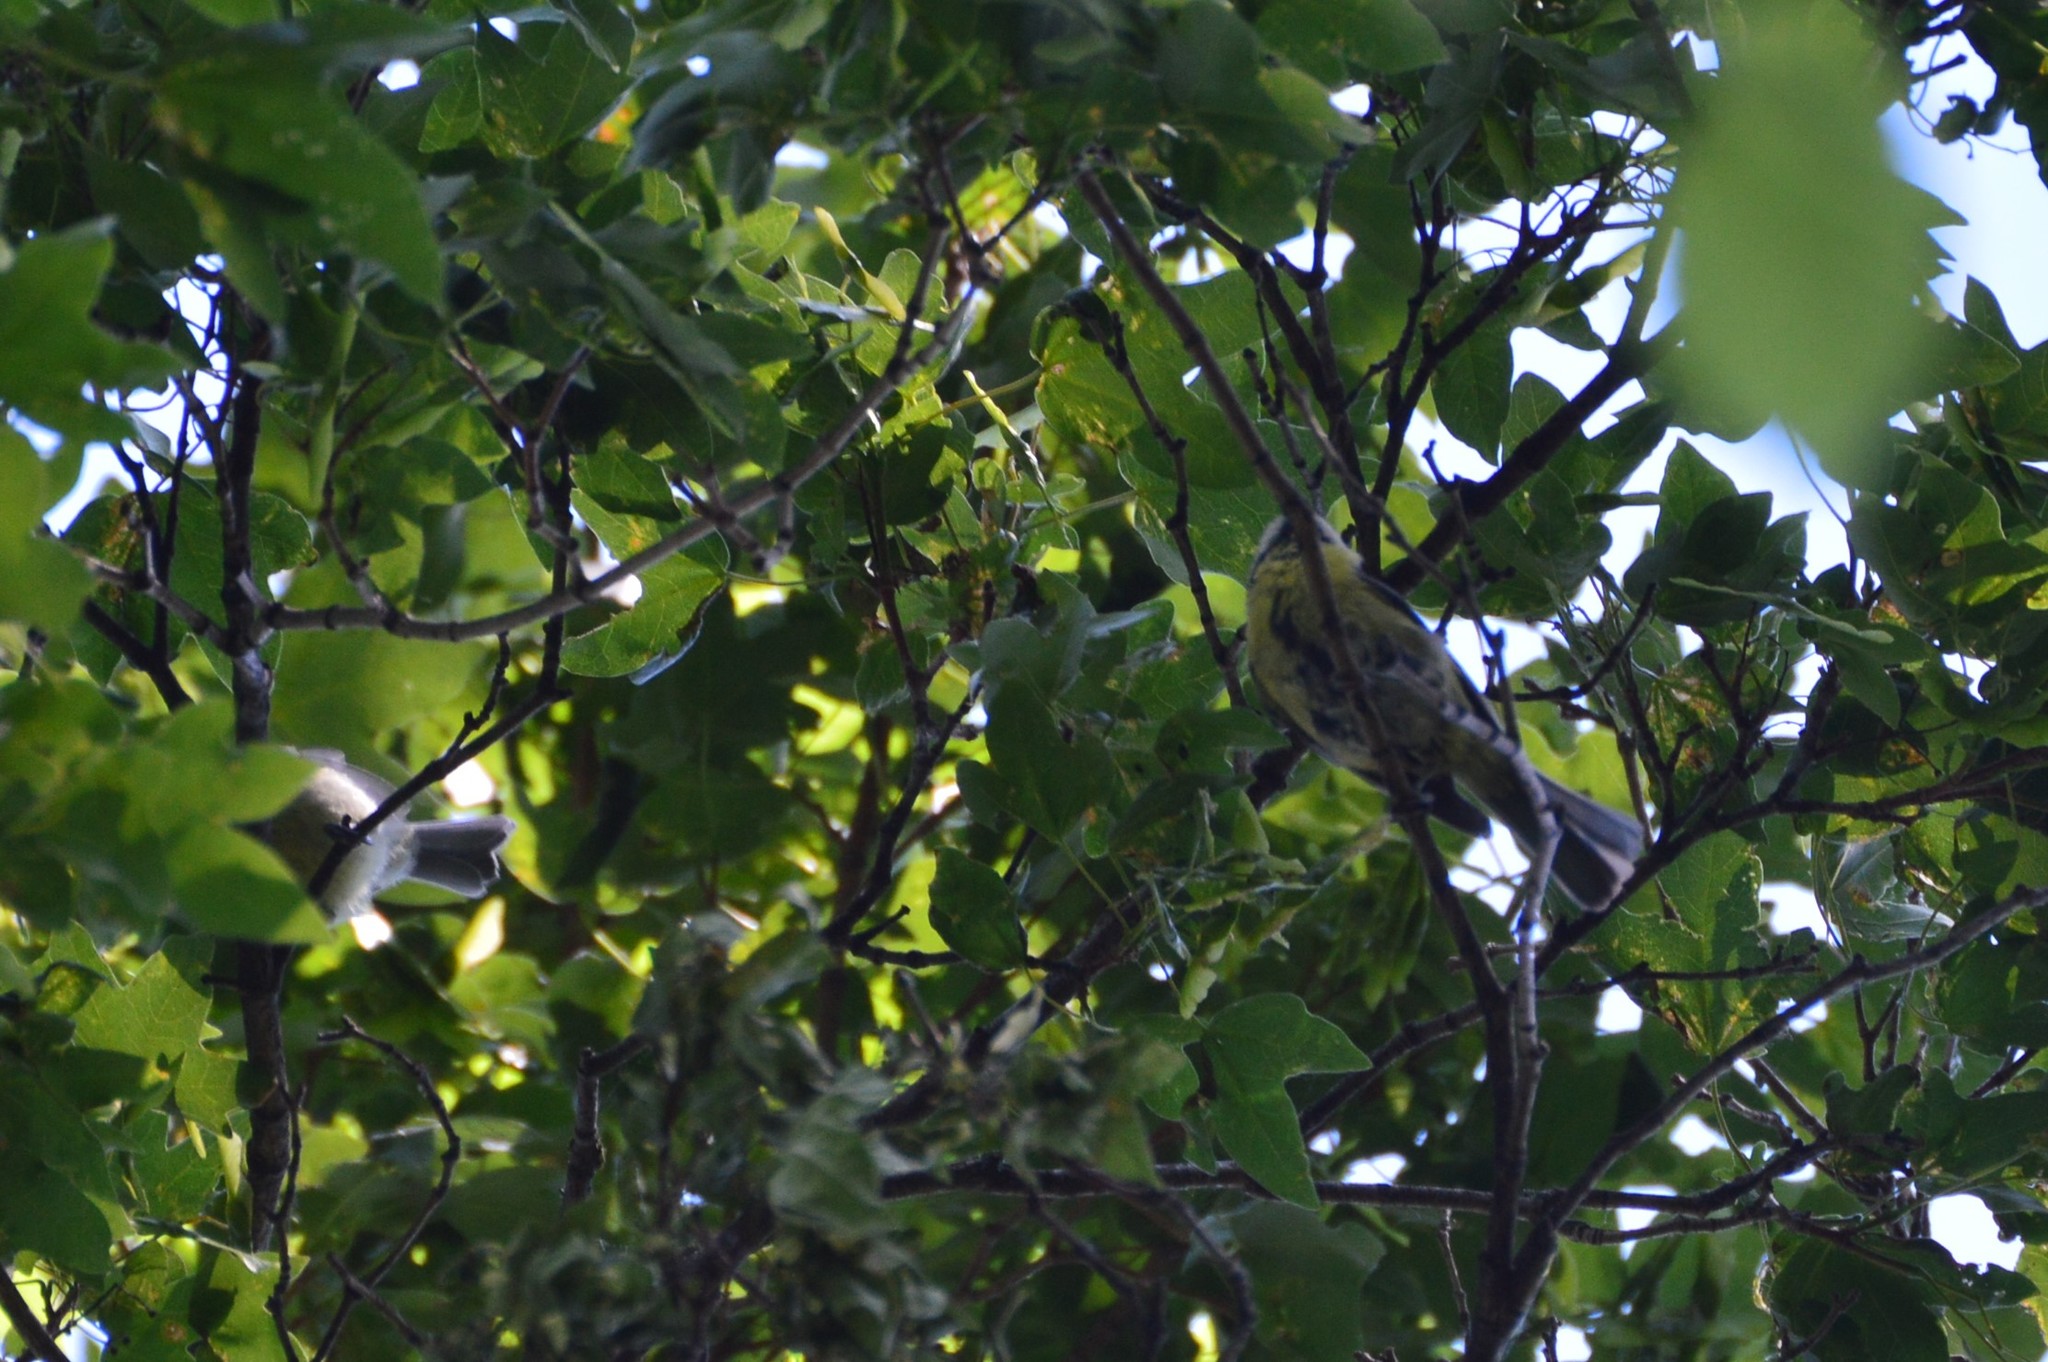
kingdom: Animalia
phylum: Chordata
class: Aves
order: Passeriformes
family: Paridae
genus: Cyanistes
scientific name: Cyanistes caeruleus
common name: Eurasian blue tit
